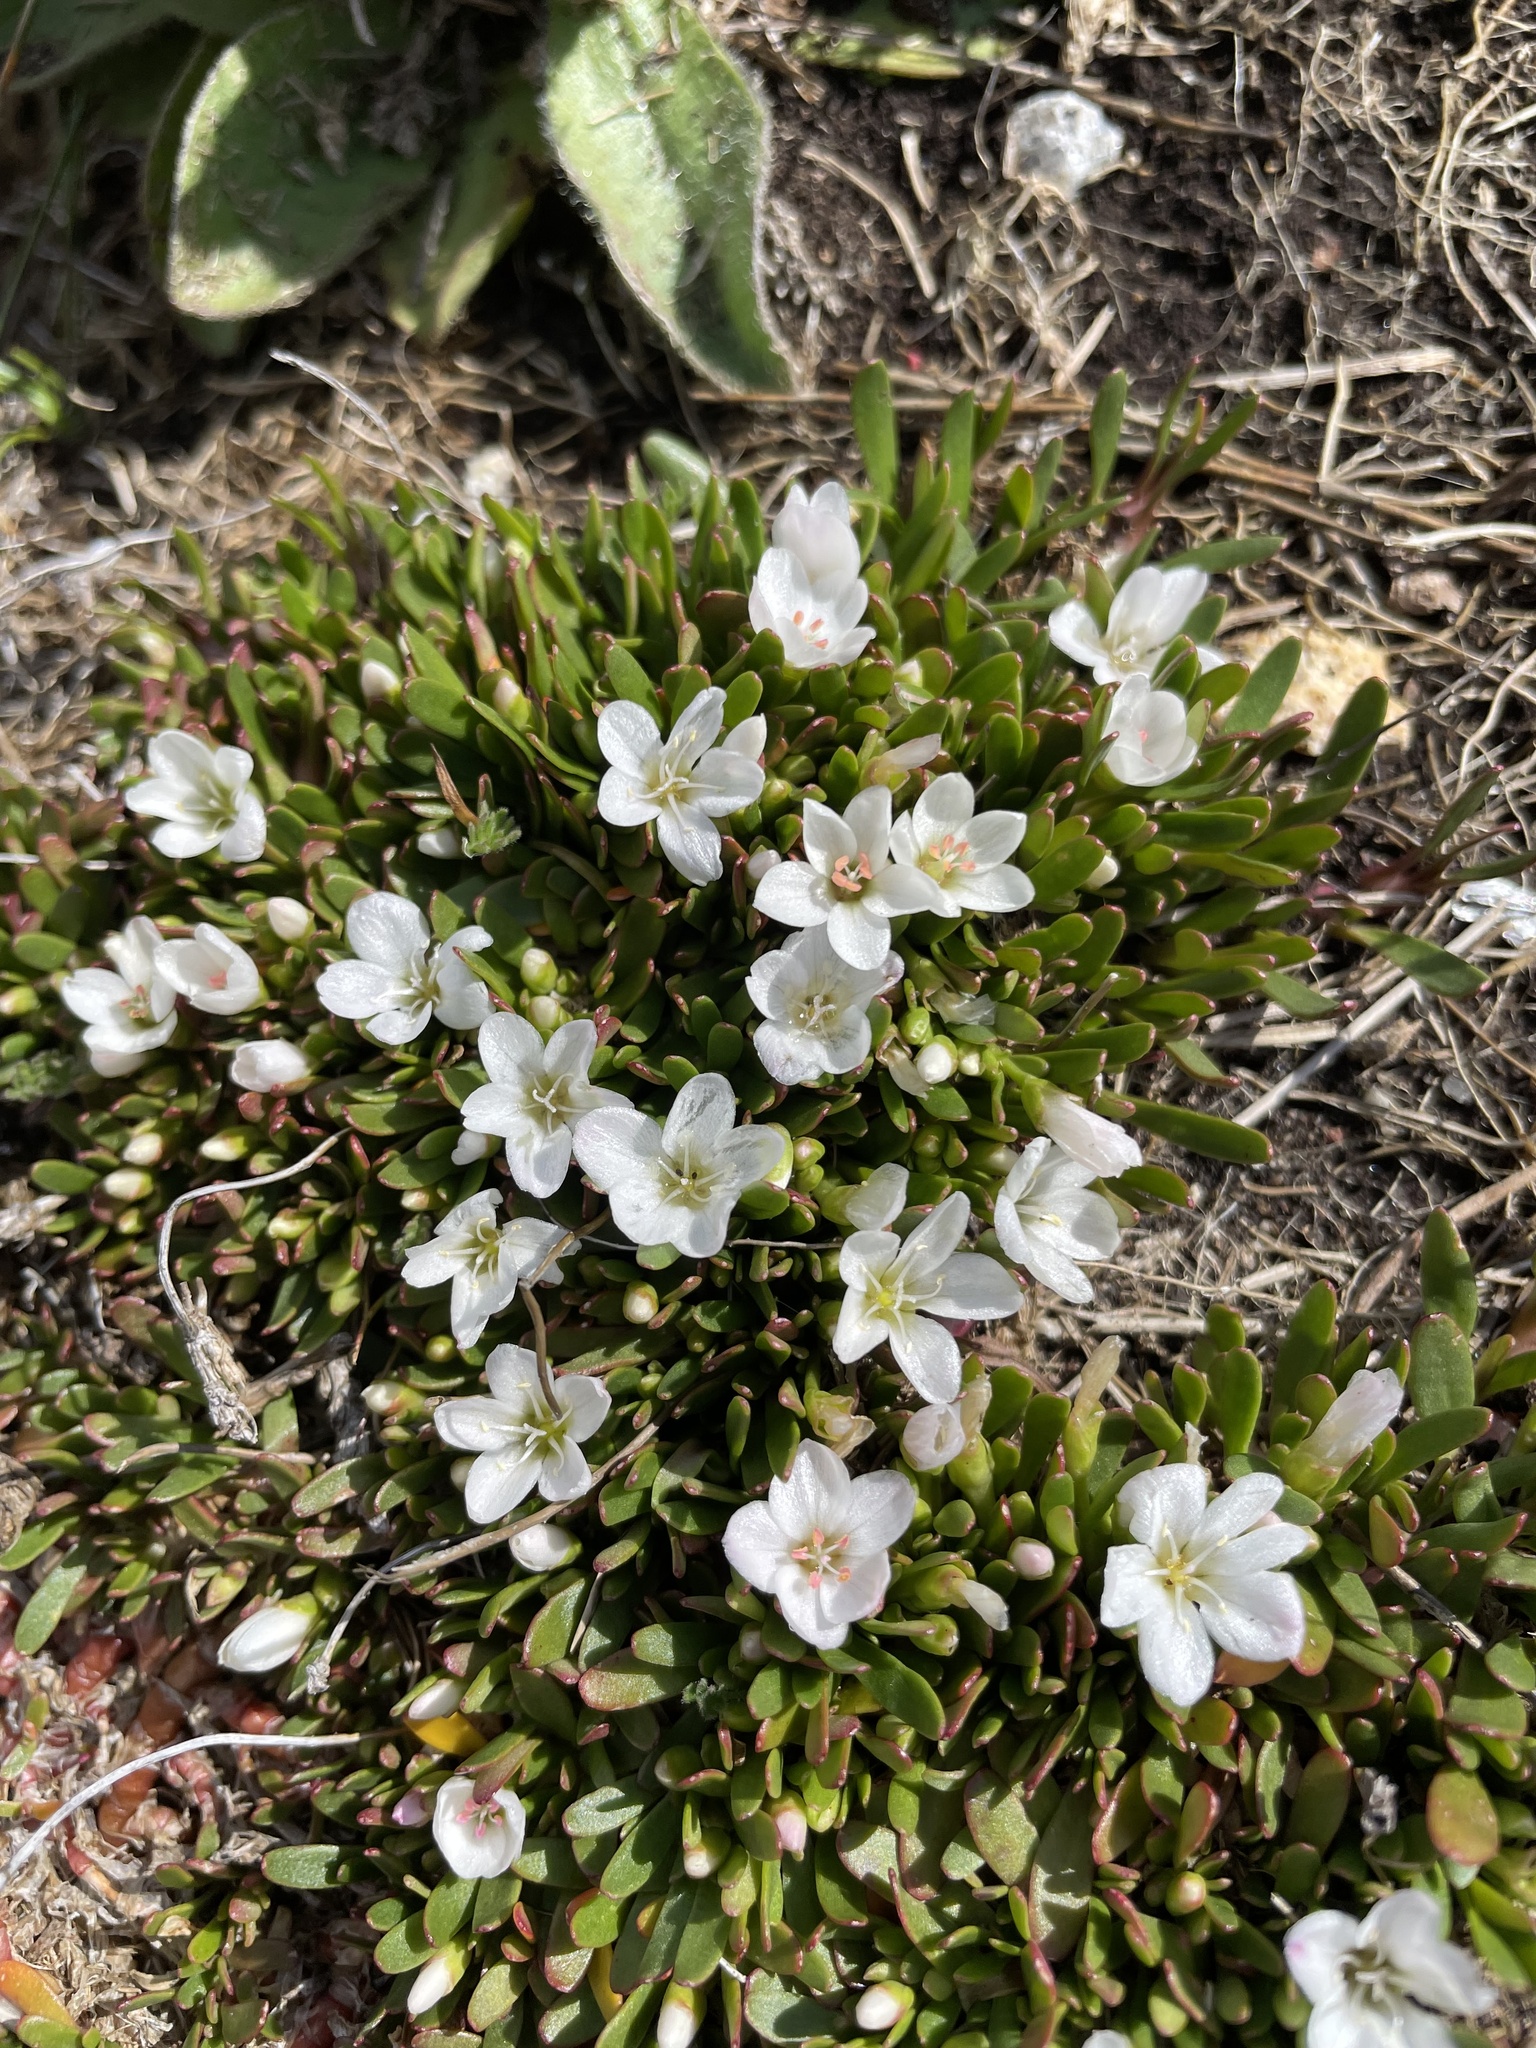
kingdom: Plantae
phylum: Tracheophyta
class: Magnoliopsida
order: Caryophyllales
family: Montiaceae
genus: Montia
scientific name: Montia australasica
